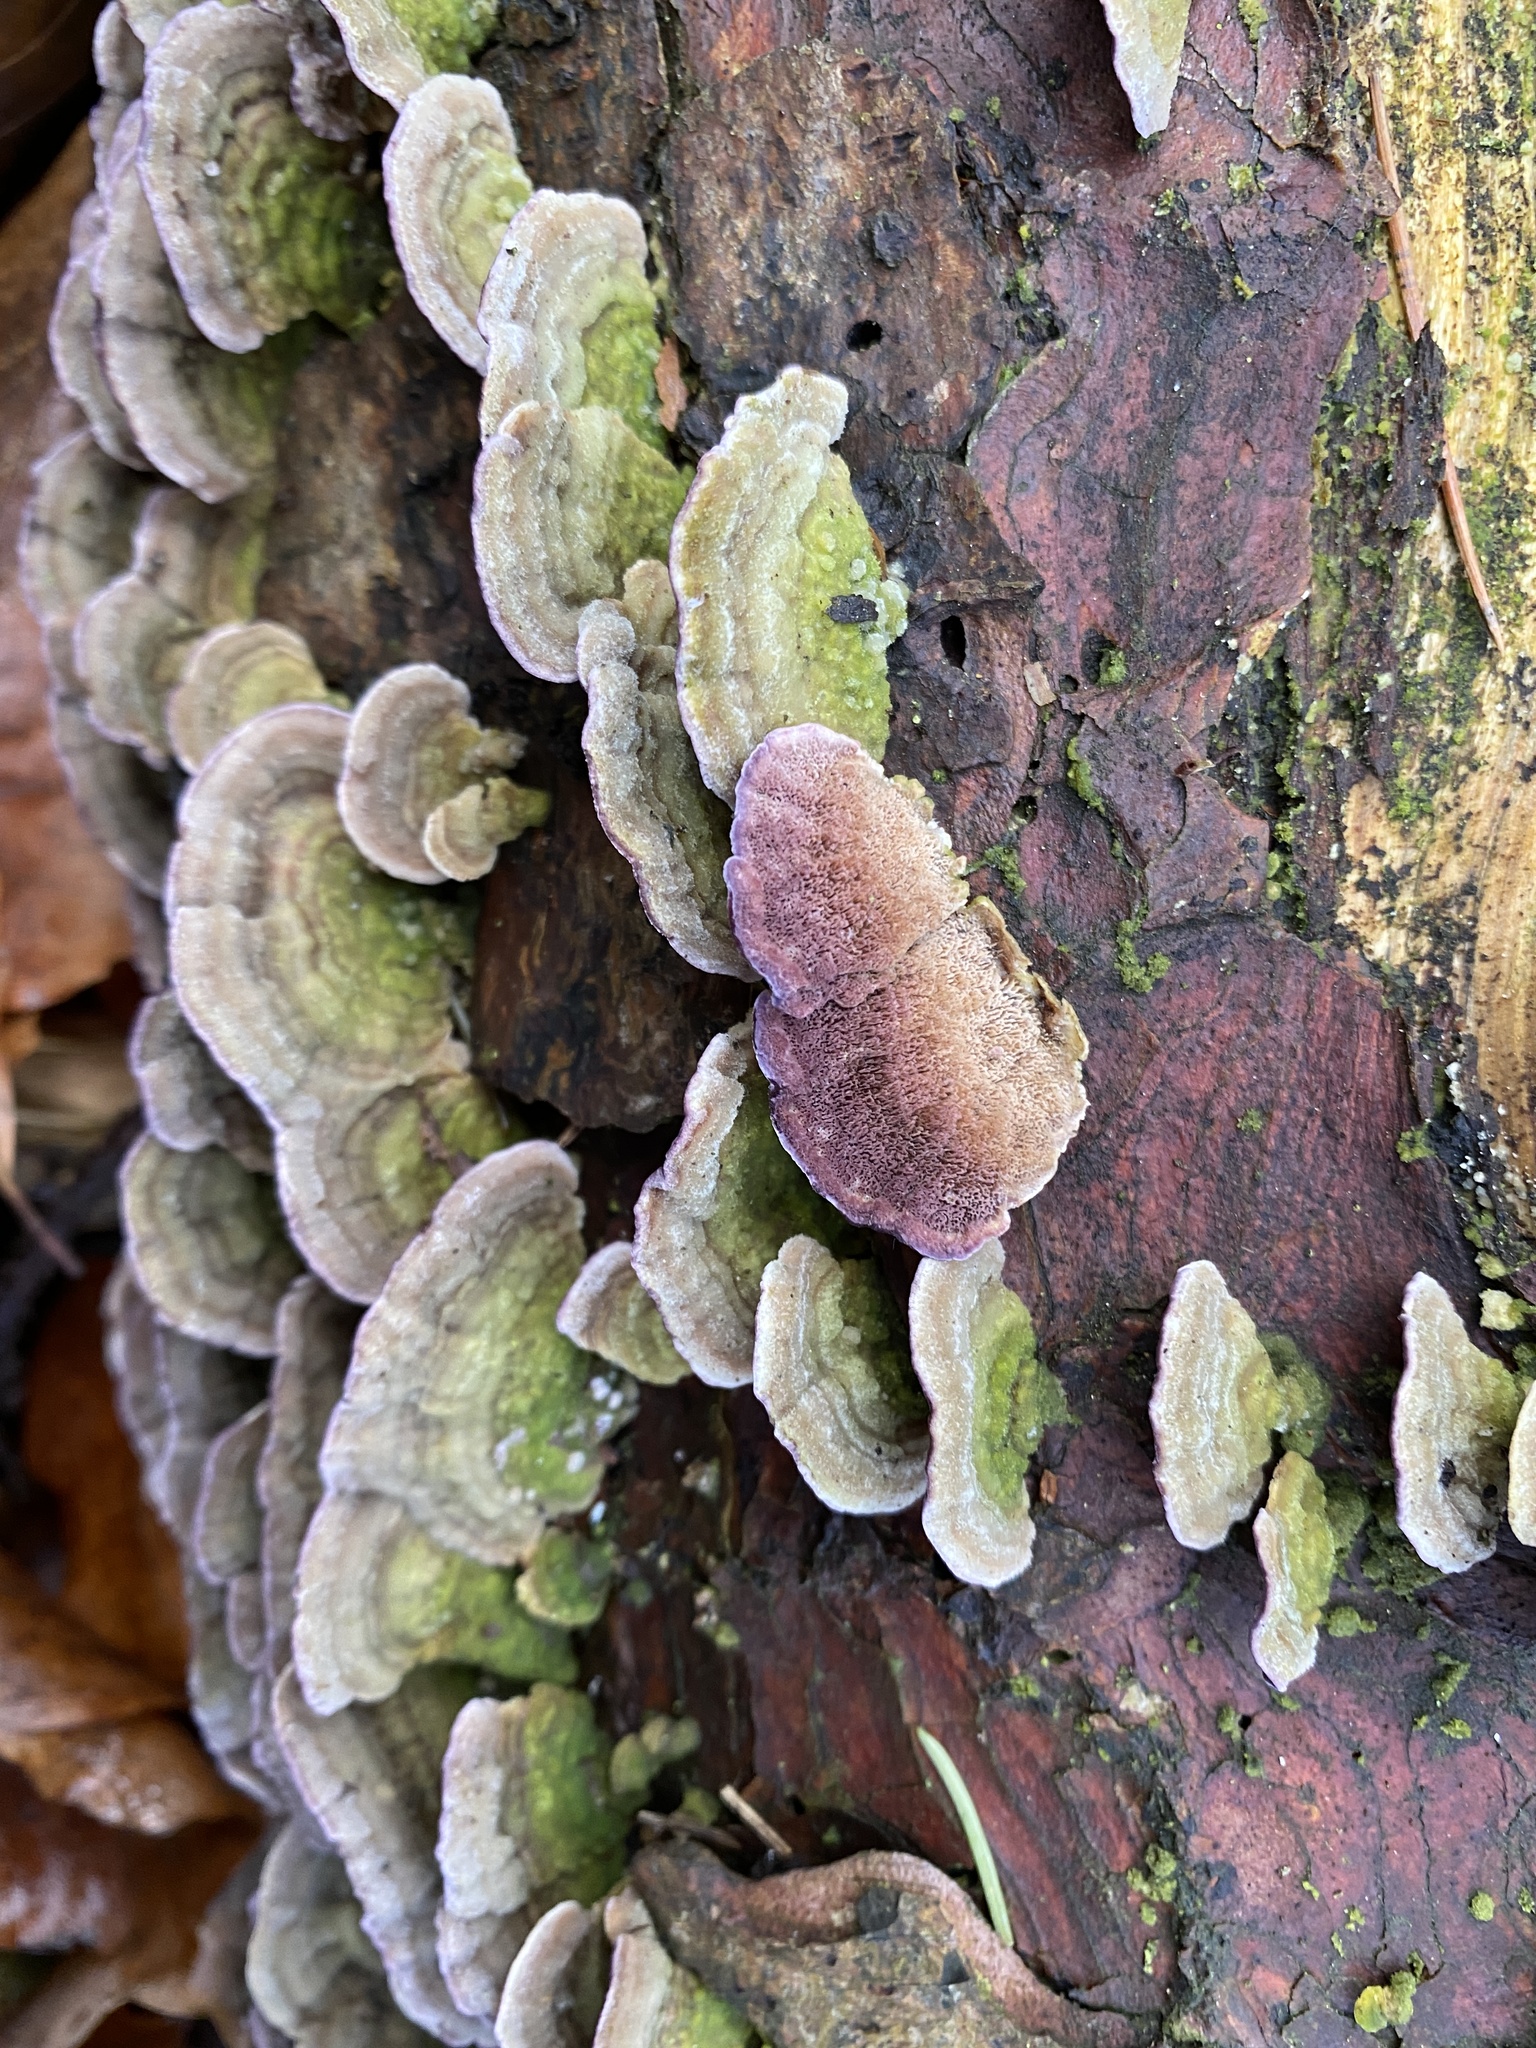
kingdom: Fungi
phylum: Basidiomycota
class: Agaricomycetes
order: Hymenochaetales
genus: Trichaptum
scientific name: Trichaptum abietinum
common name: Purplepore bracket
